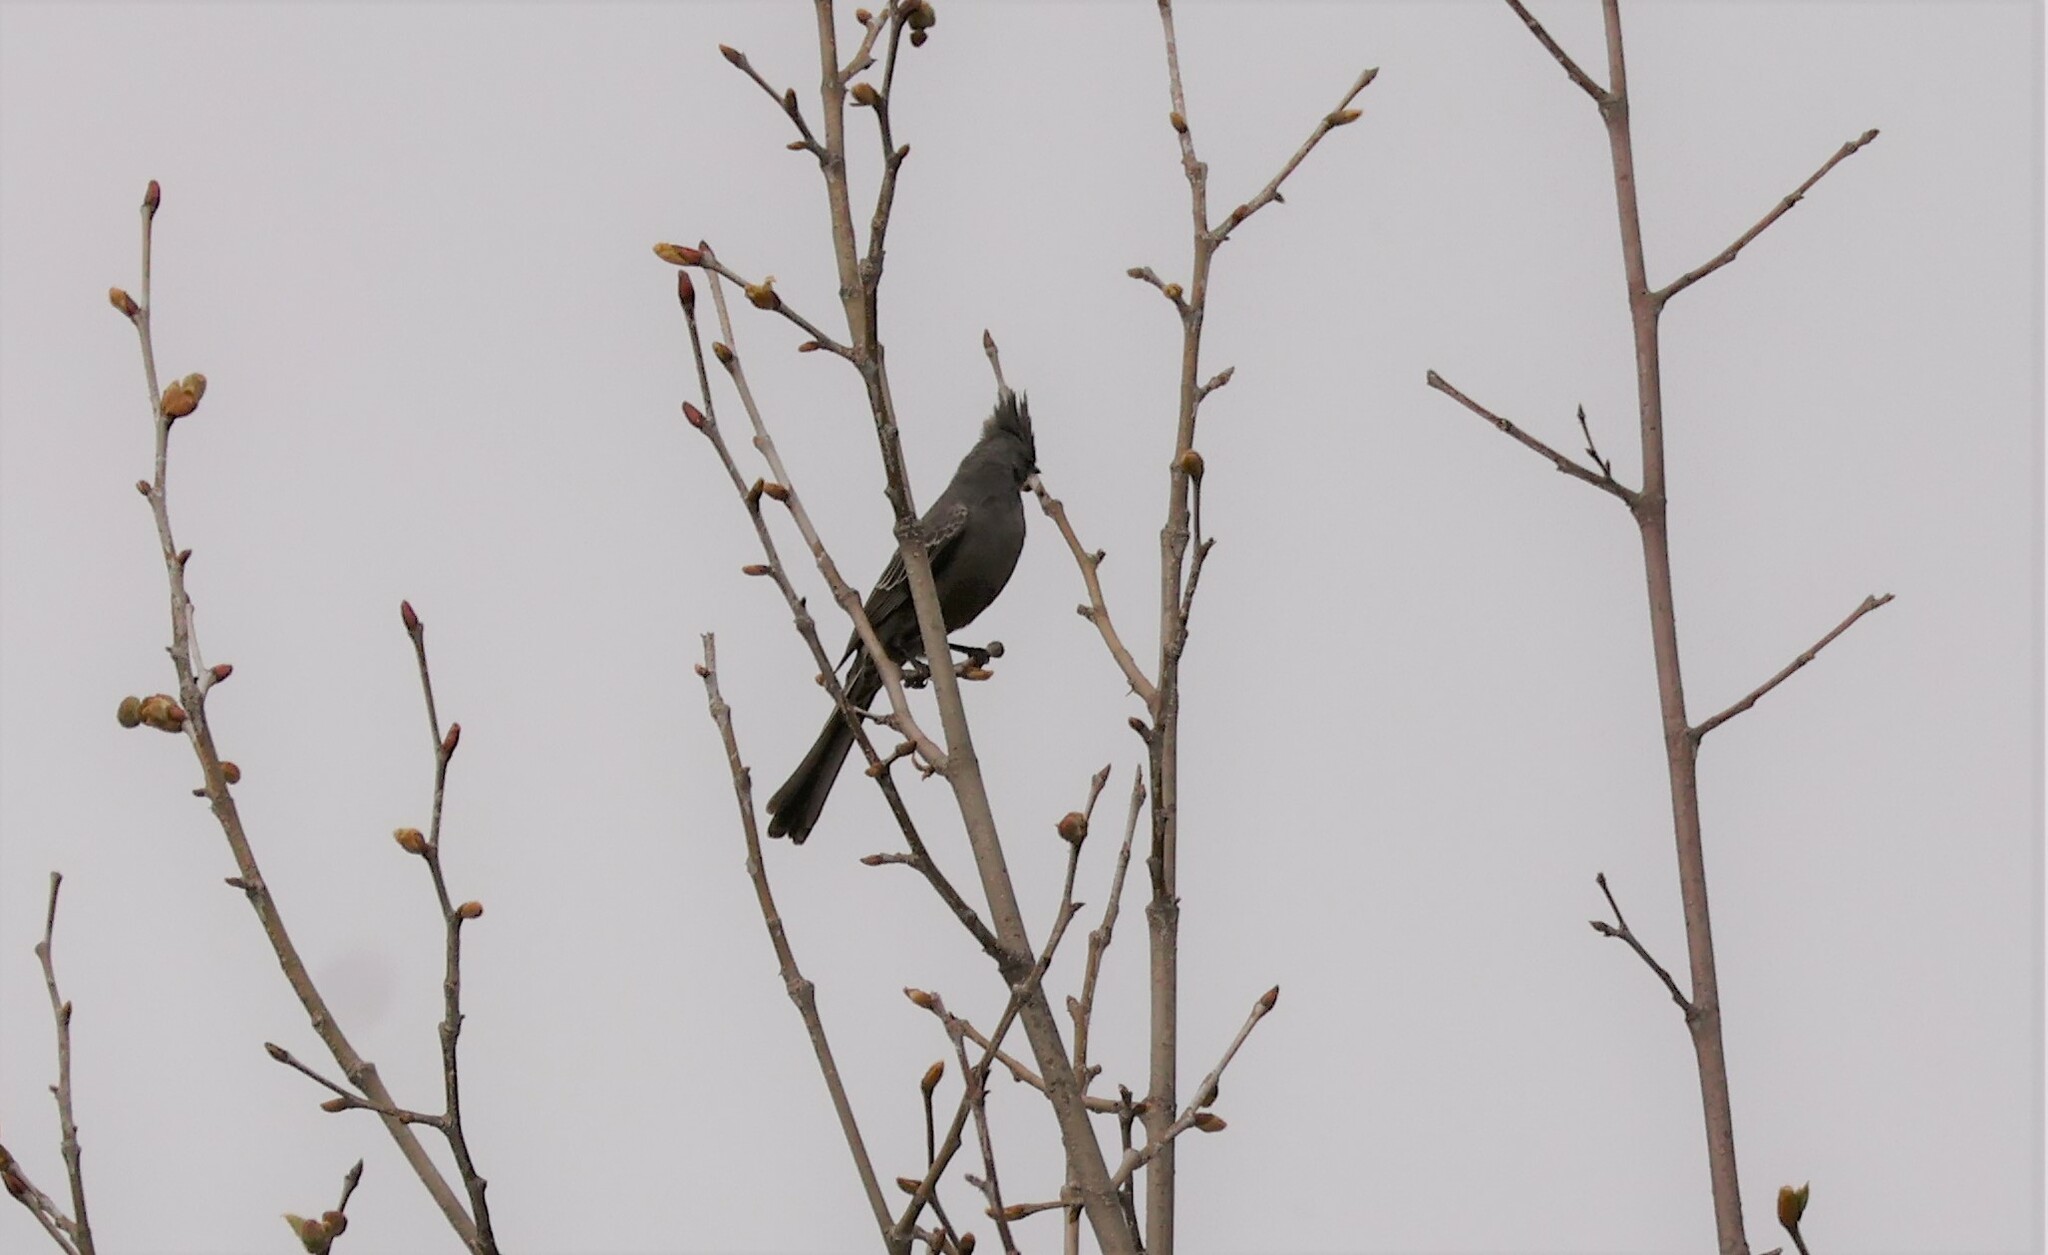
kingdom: Animalia
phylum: Chordata
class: Aves
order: Passeriformes
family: Ptilogonatidae
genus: Phainopepla
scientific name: Phainopepla nitens
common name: Phainopepla
